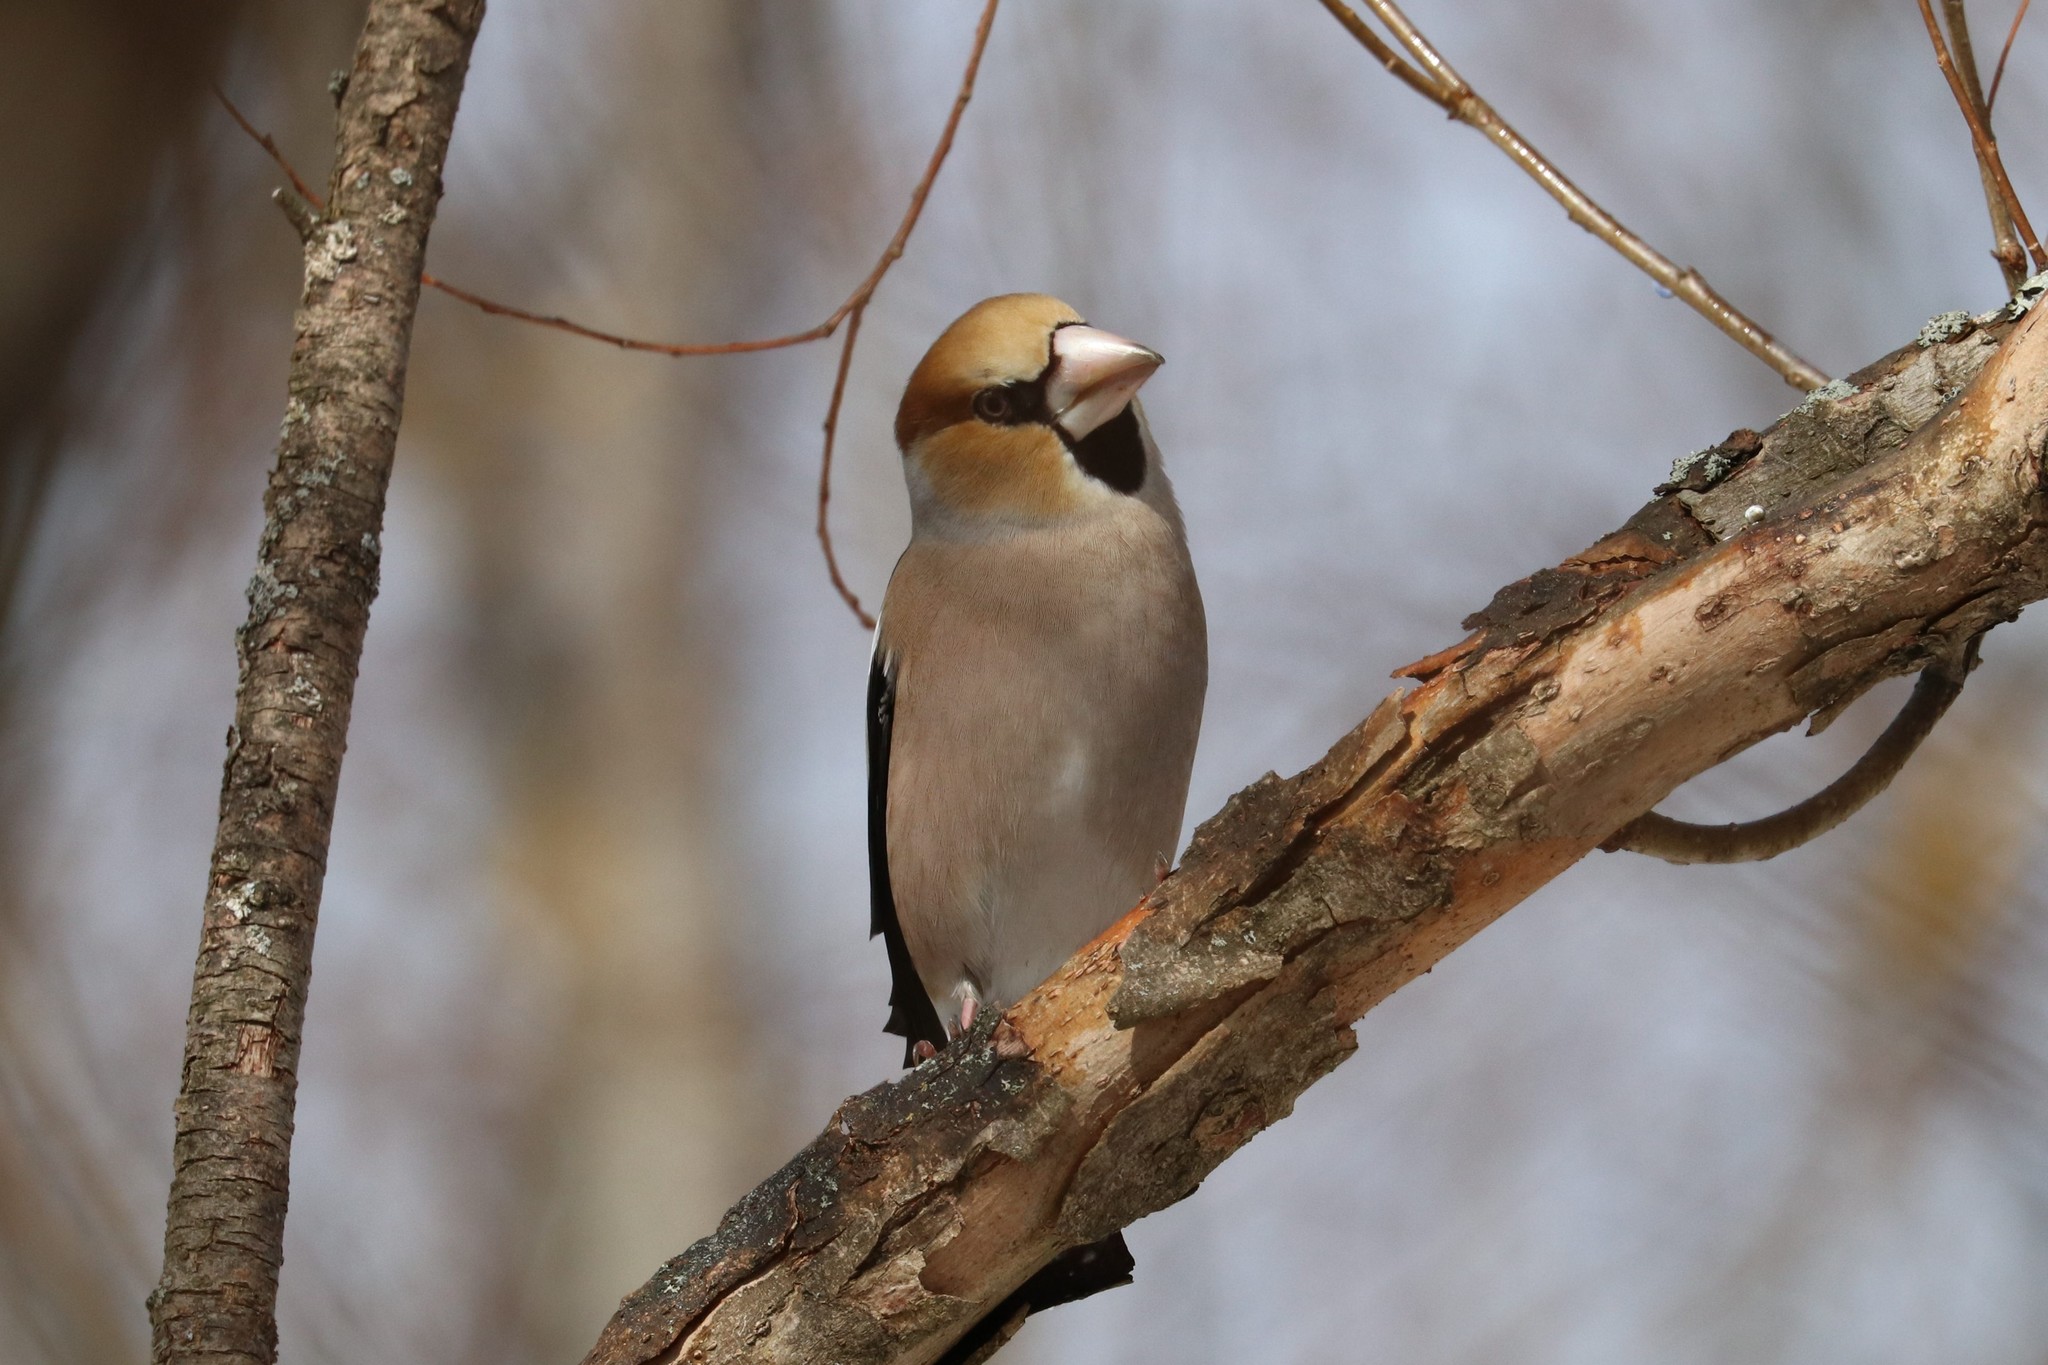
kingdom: Animalia
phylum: Chordata
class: Aves
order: Passeriformes
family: Fringillidae
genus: Coccothraustes
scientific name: Coccothraustes coccothraustes
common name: Hawfinch
